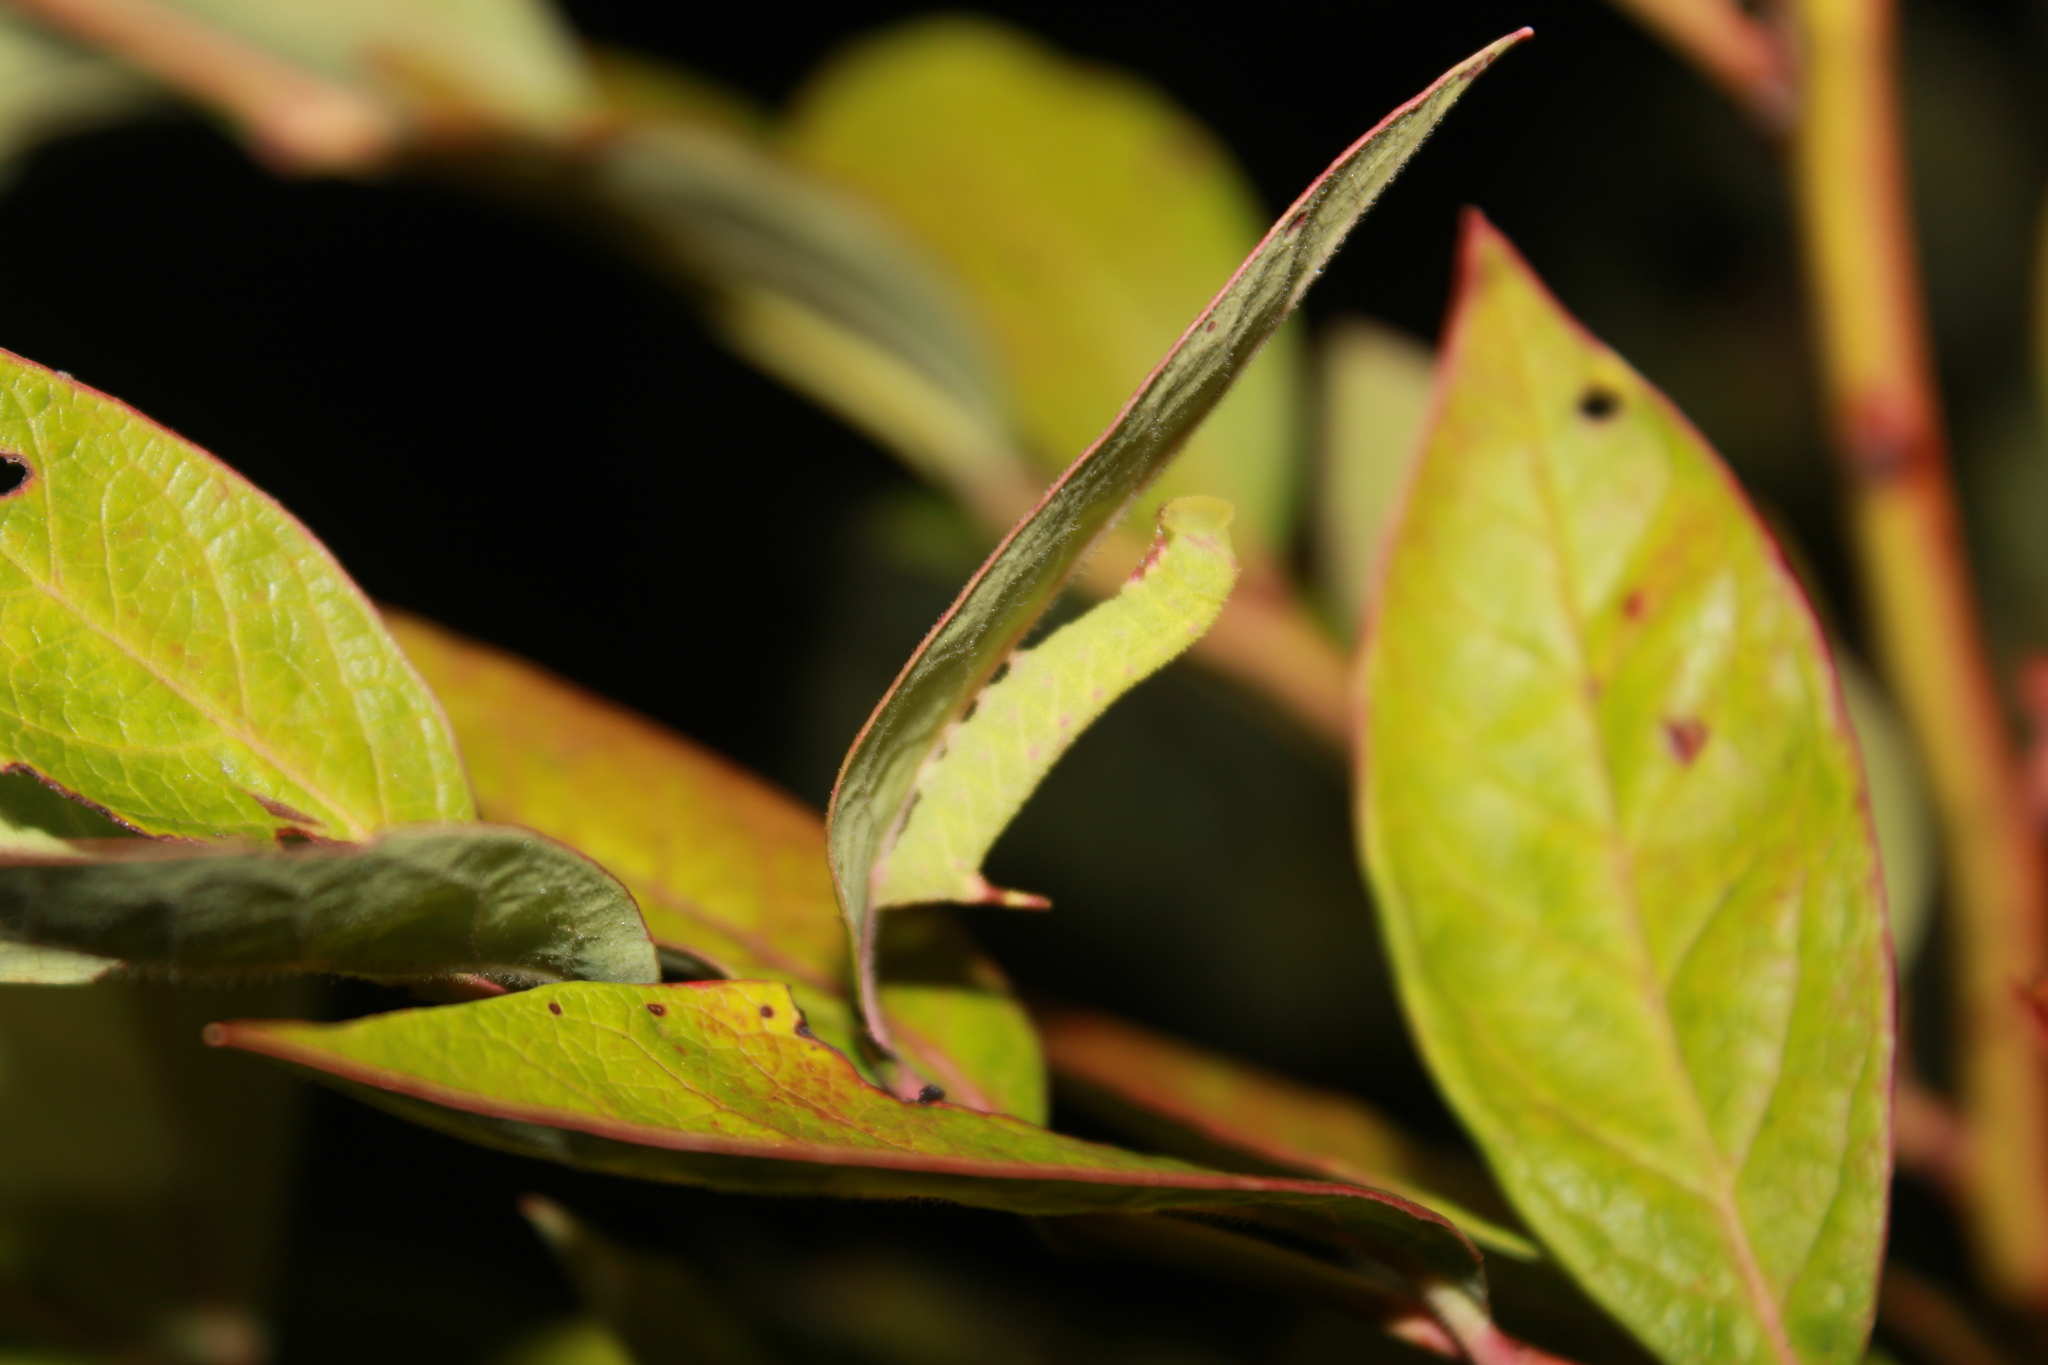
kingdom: Animalia
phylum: Arthropoda
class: Insecta
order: Lepidoptera
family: Sphingidae
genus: Paonias
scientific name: Paonias astylus
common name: Huckleberry sphinx
